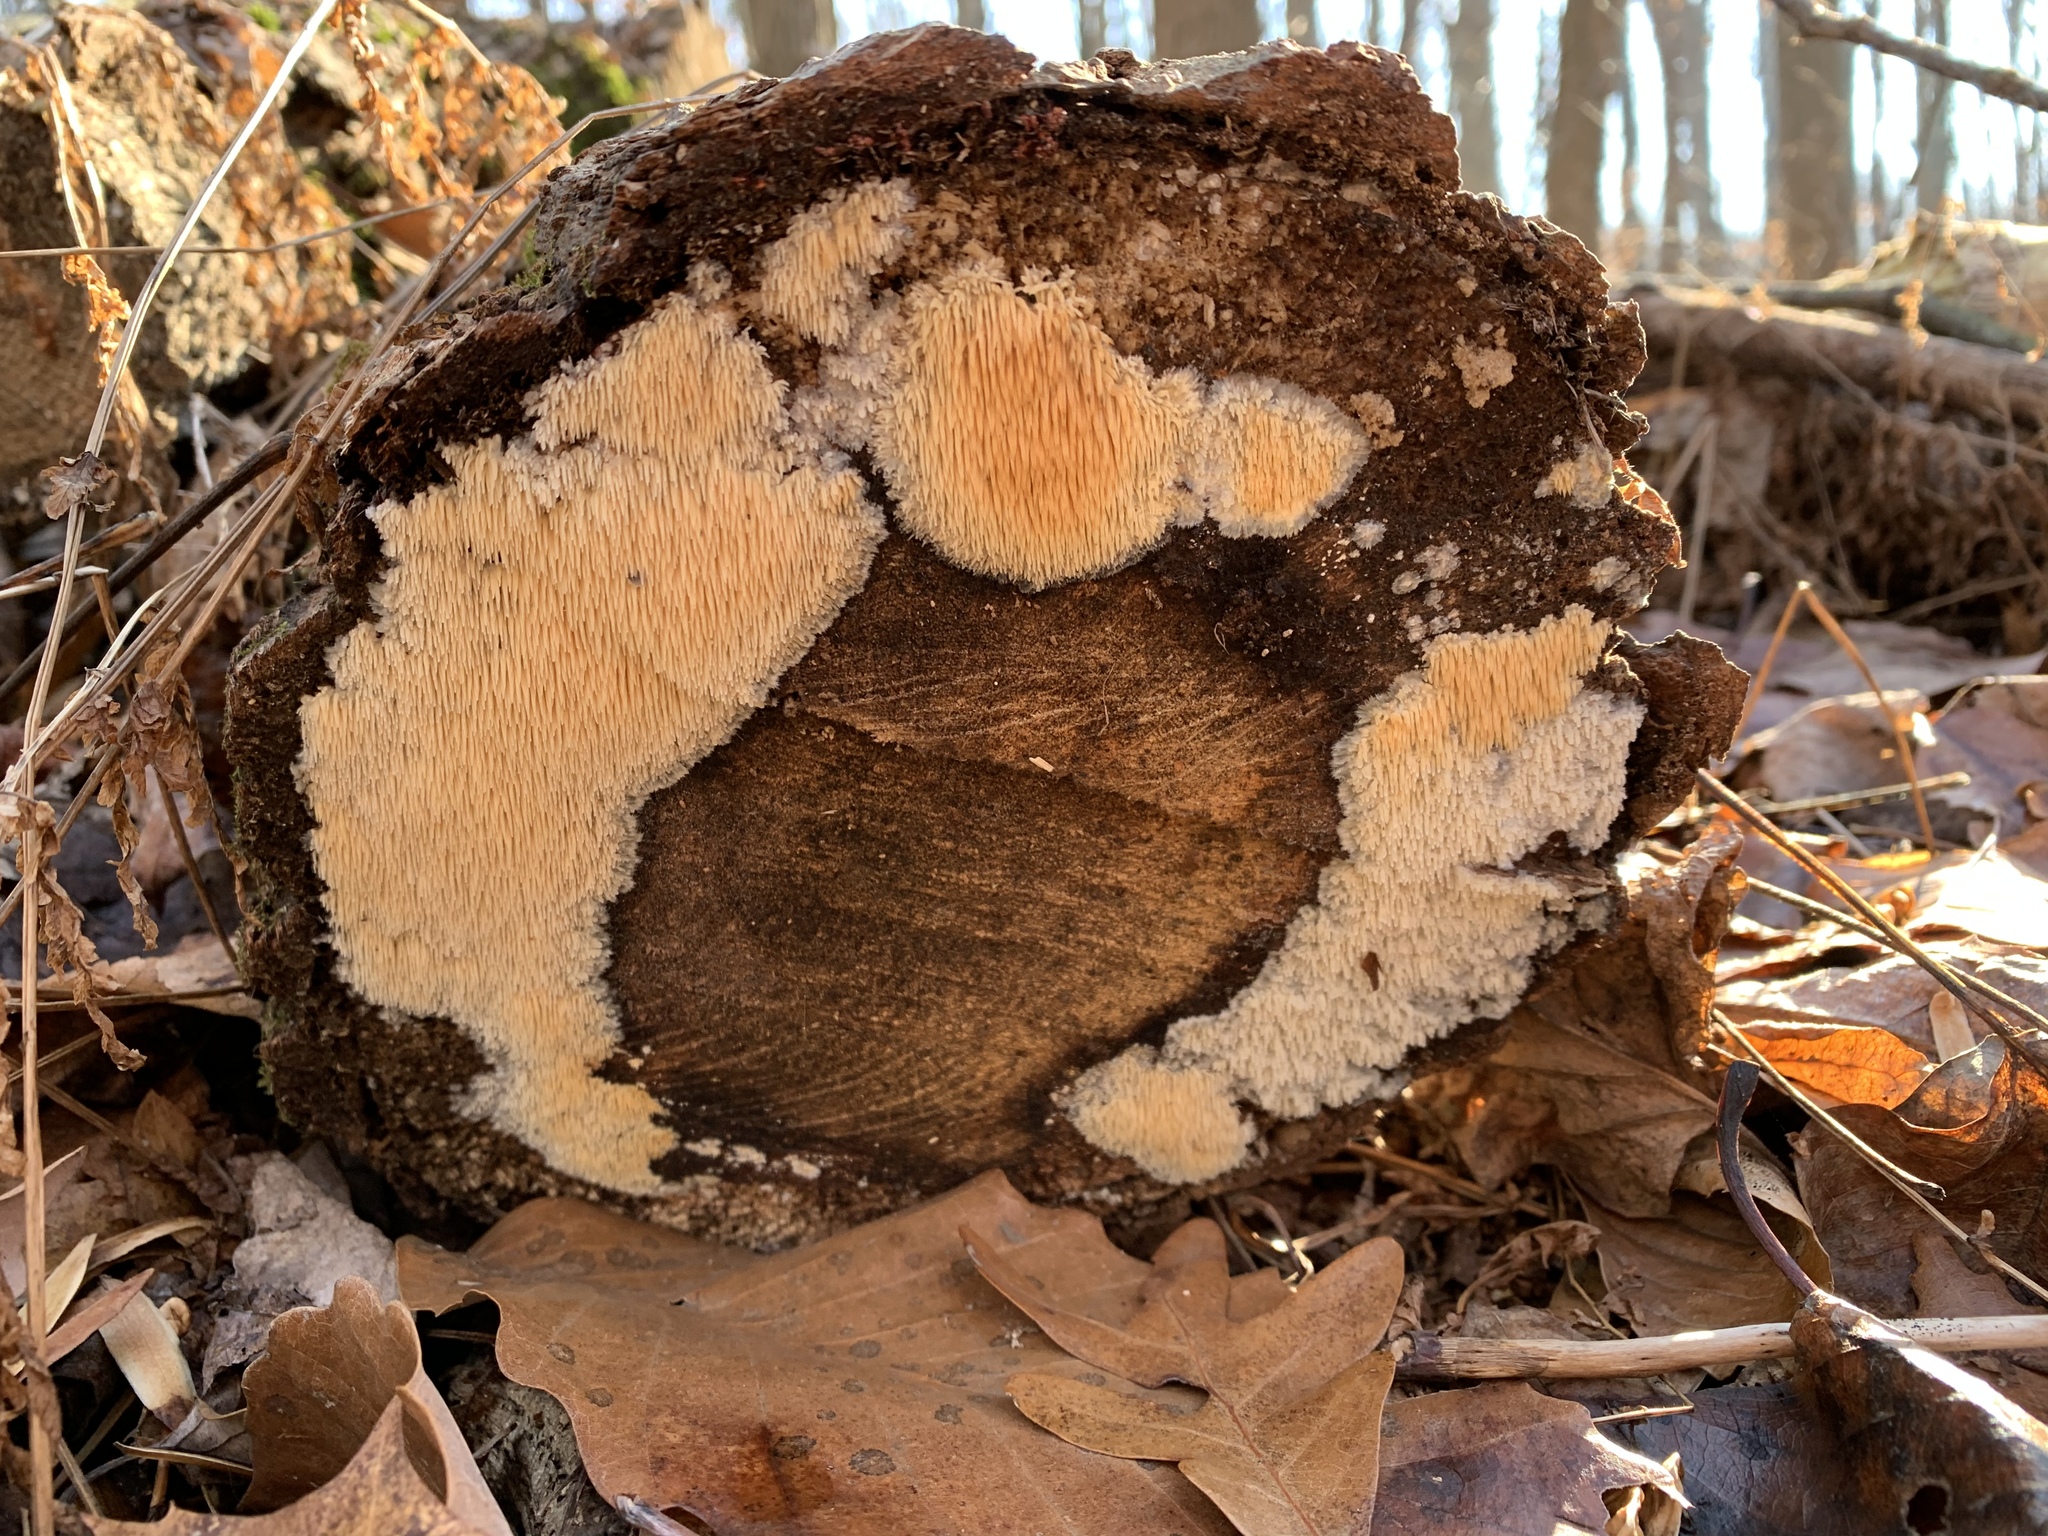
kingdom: Fungi
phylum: Basidiomycota
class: Agaricomycetes
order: Agaricales
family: Radulomycetaceae
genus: Radulomyces
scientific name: Radulomyces copelandii
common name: Asian beauty
